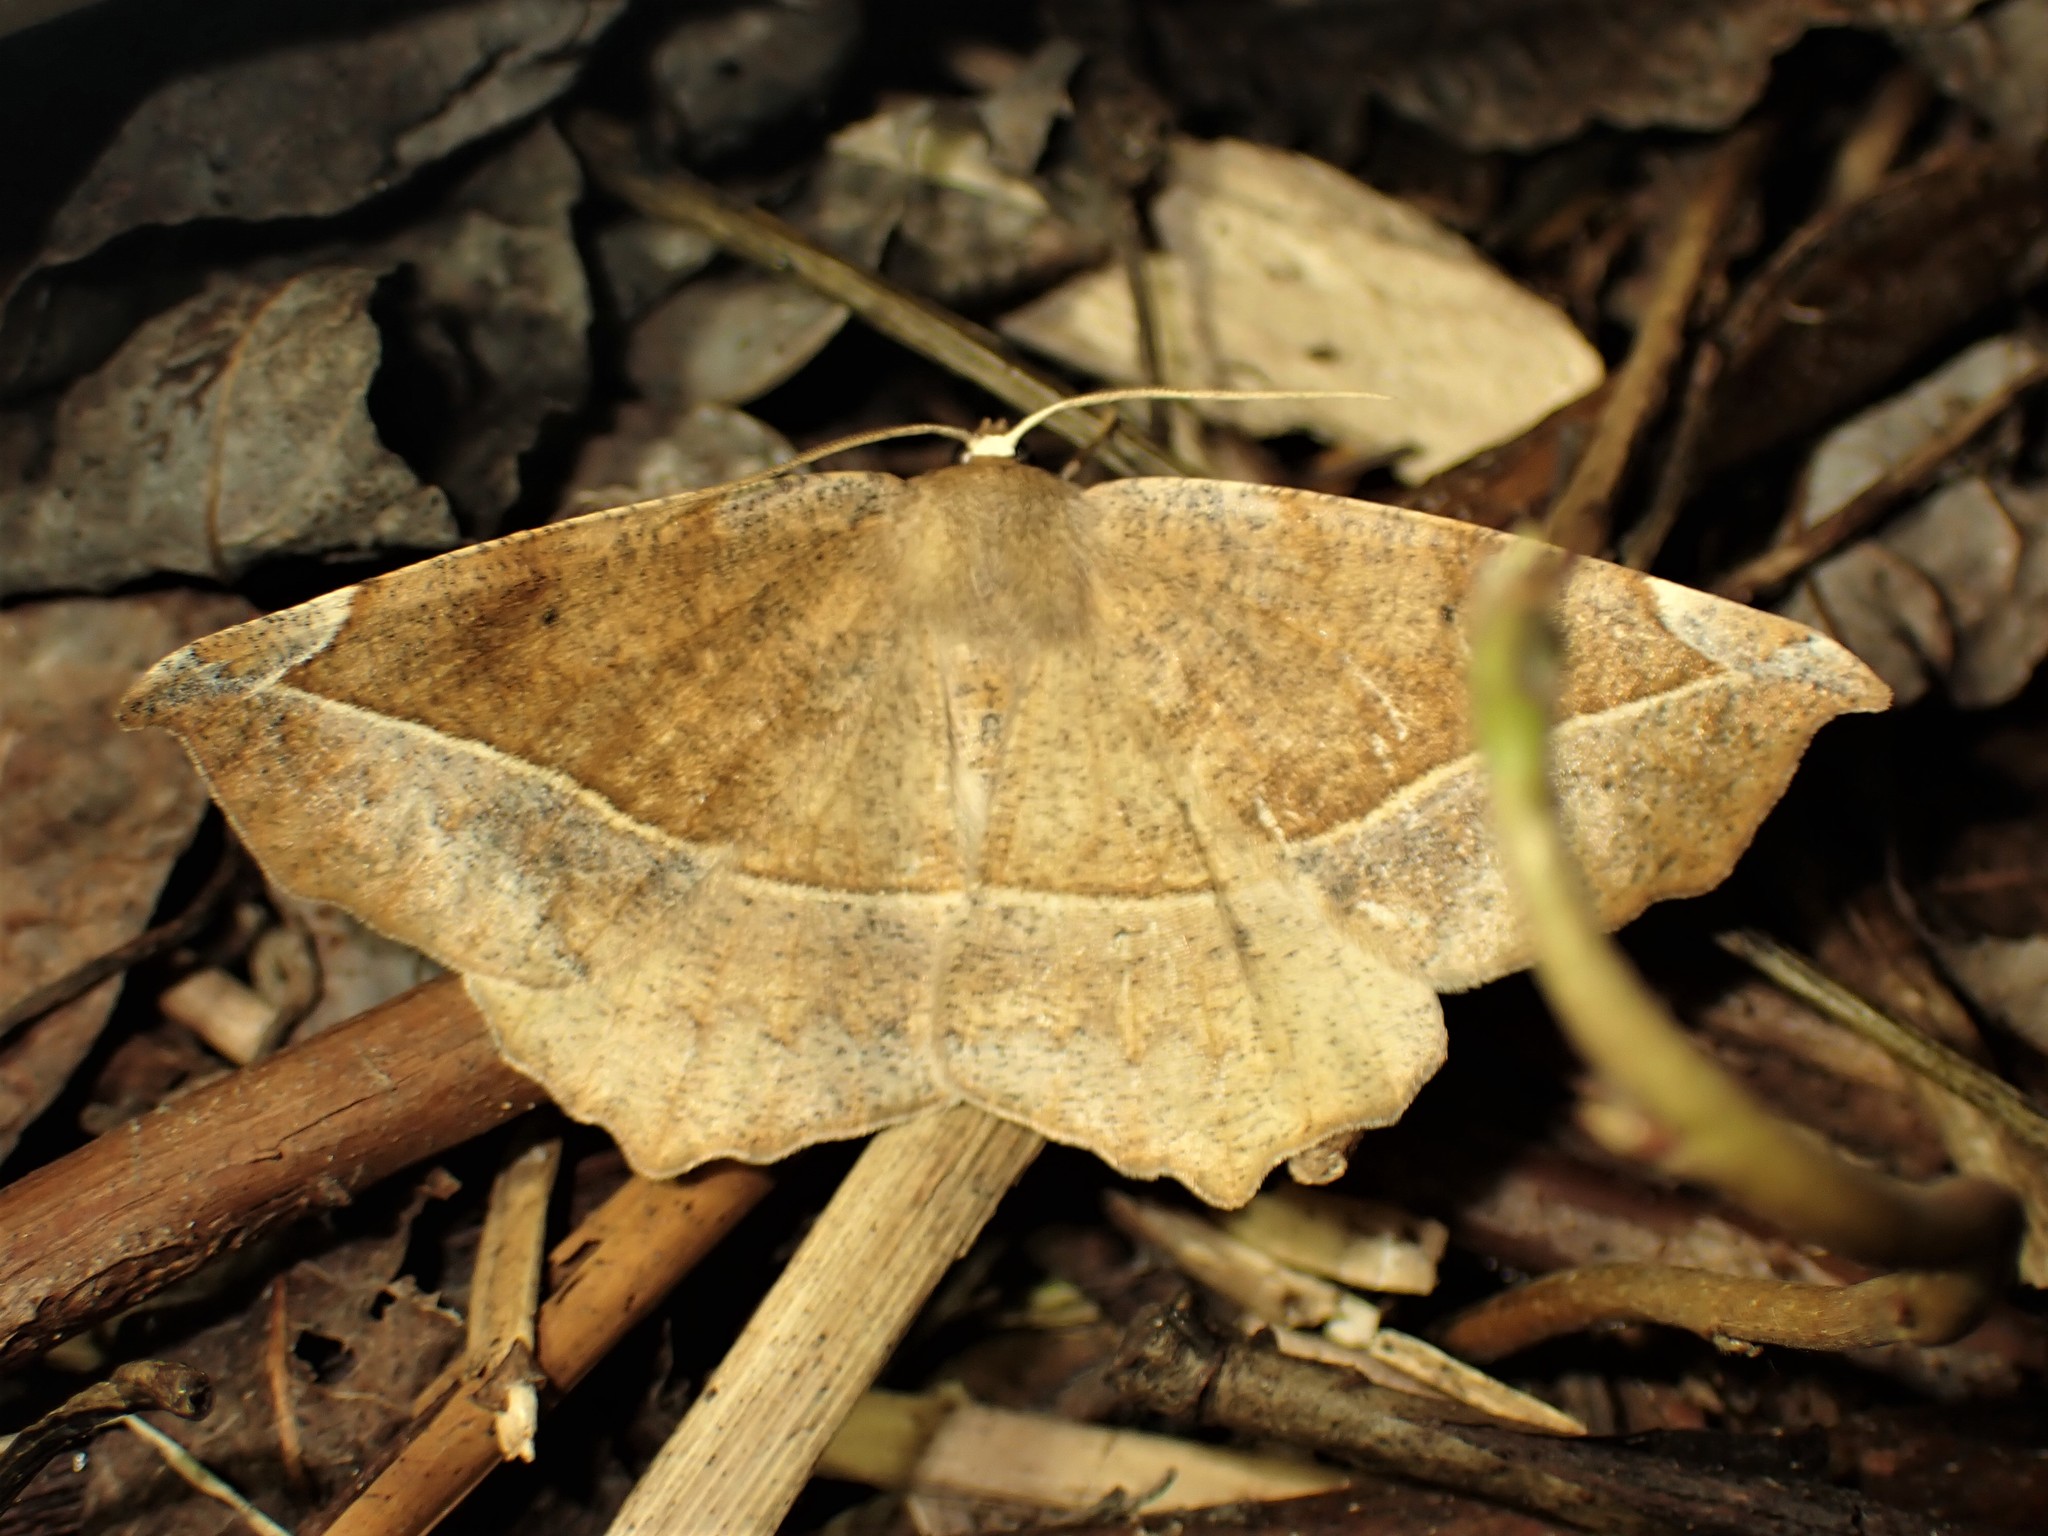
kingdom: Animalia
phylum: Arthropoda
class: Insecta
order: Lepidoptera
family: Geometridae
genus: Eutrapela
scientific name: Eutrapela clemataria
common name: Curved-toothed geometer
